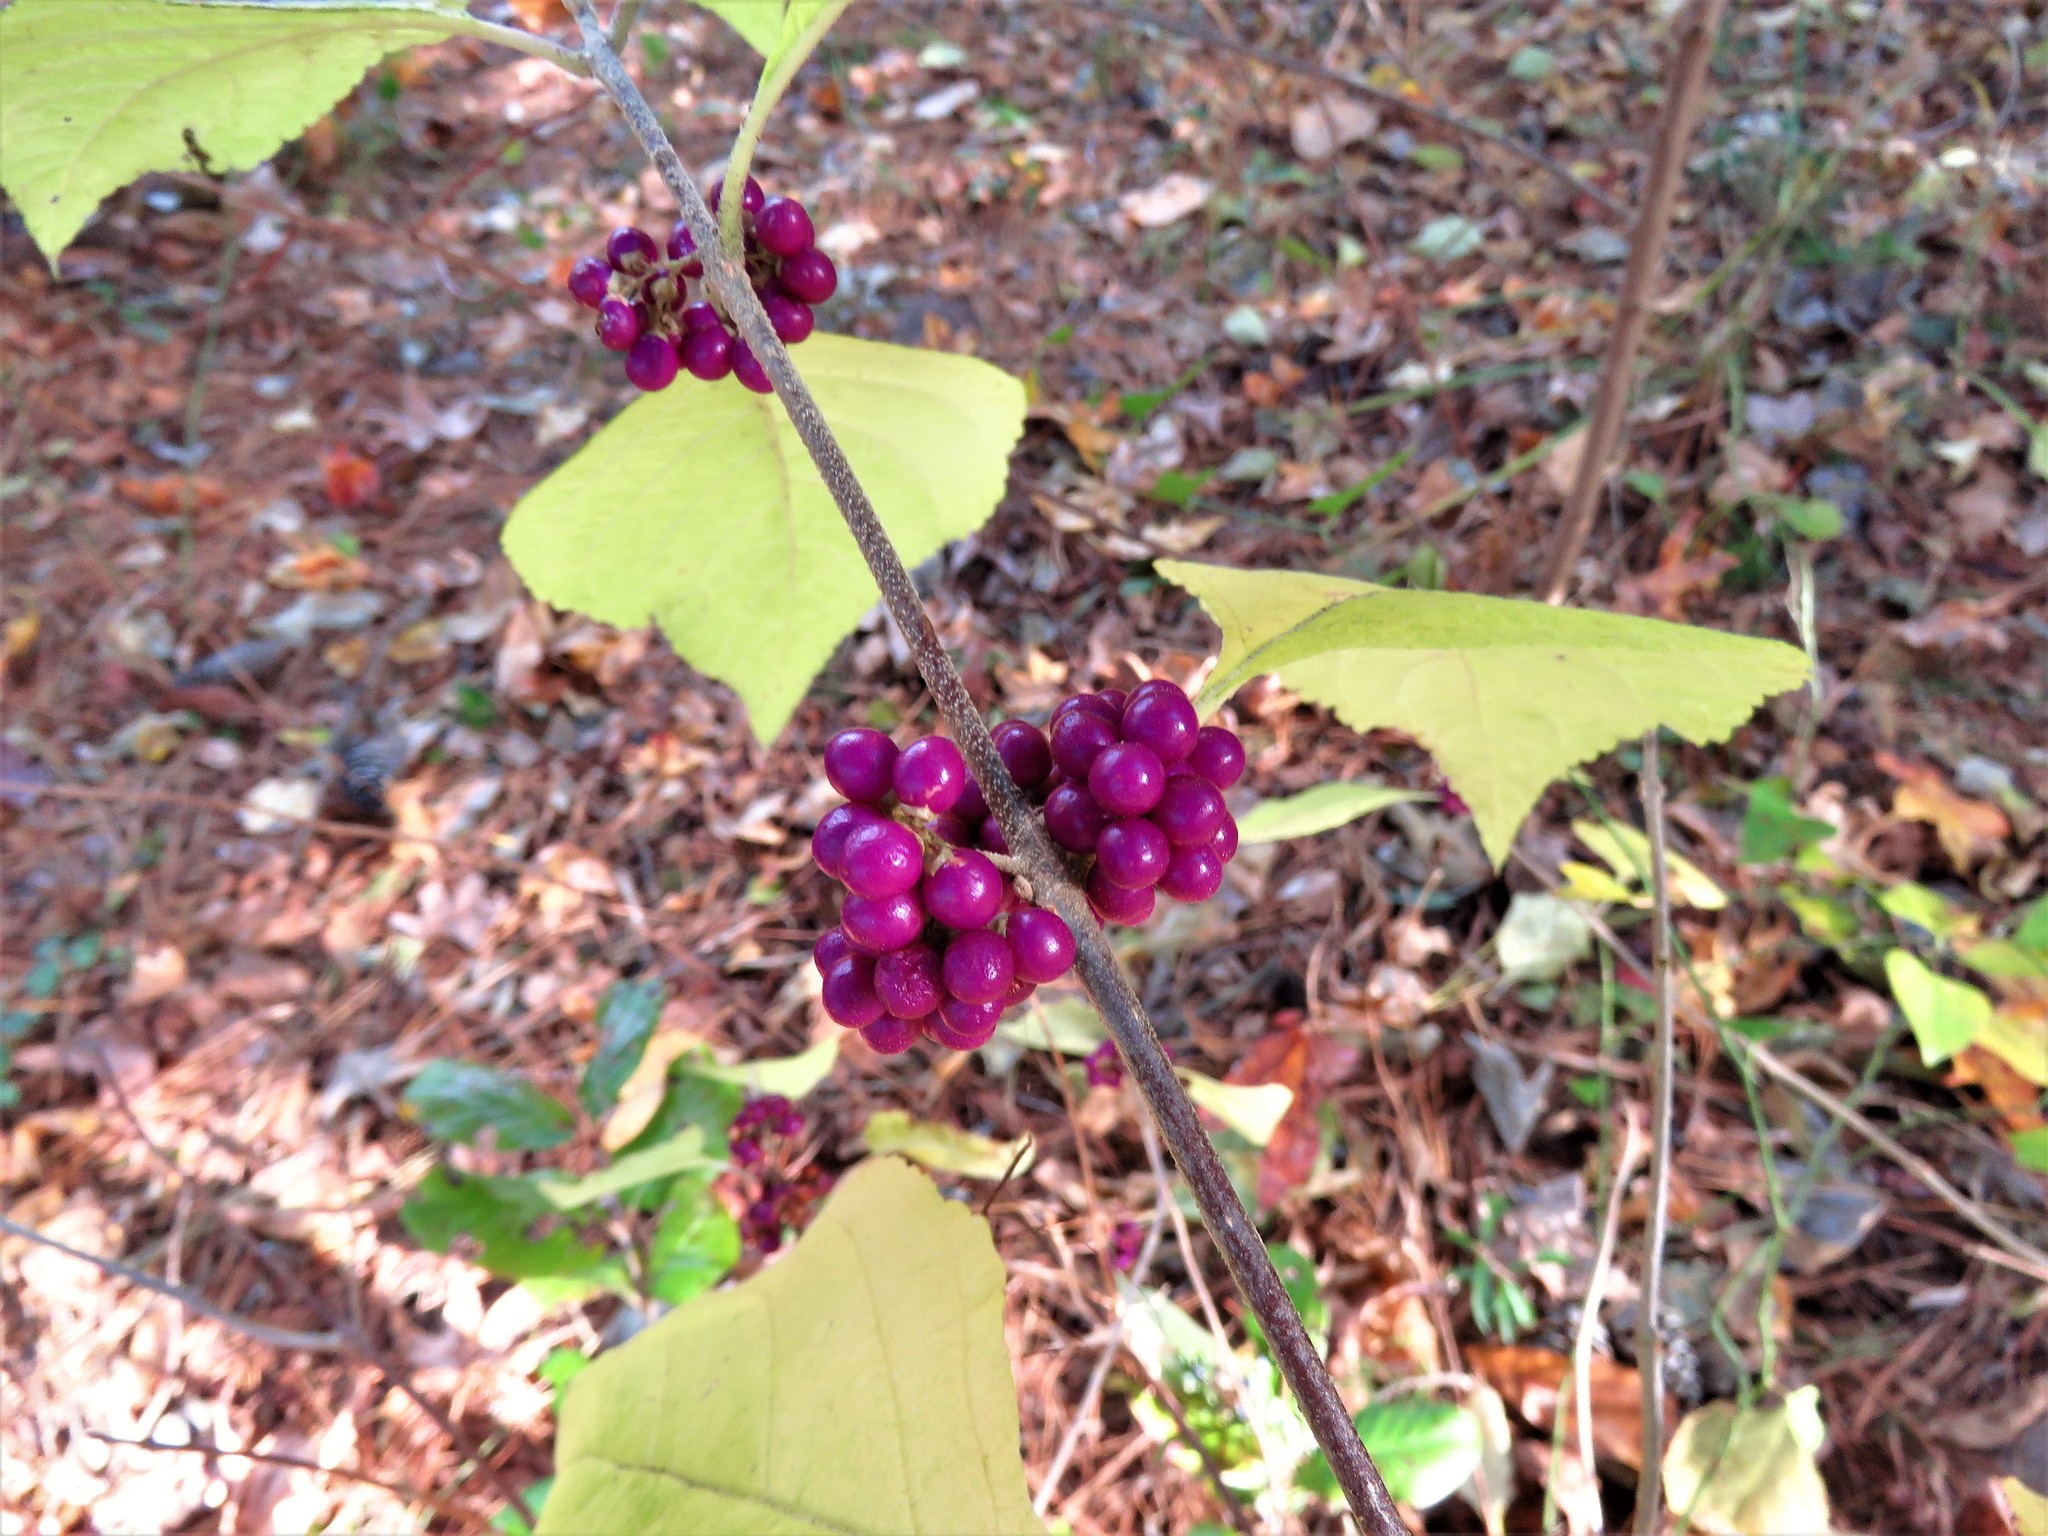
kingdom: Plantae
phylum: Tracheophyta
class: Magnoliopsida
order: Lamiales
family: Lamiaceae
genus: Callicarpa
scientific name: Callicarpa americana
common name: American beautyberry
